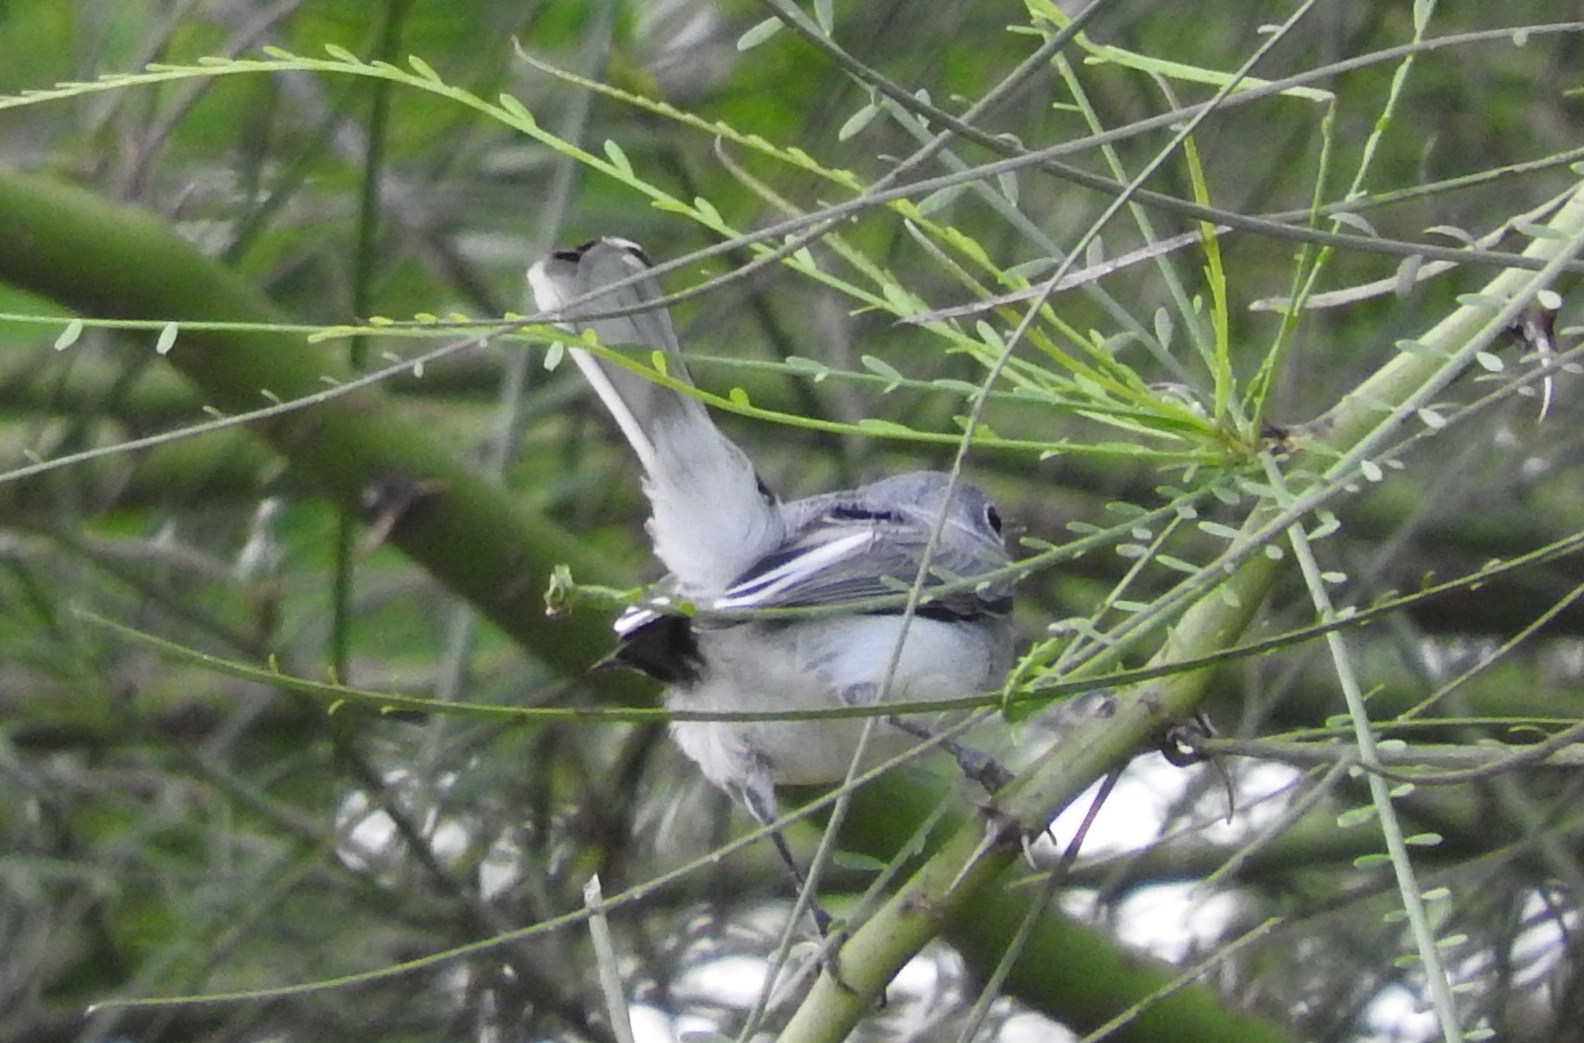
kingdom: Animalia
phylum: Chordata
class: Aves
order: Passeriformes
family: Polioptilidae
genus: Polioptila
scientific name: Polioptila caerulea
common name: Blue-gray gnatcatcher
